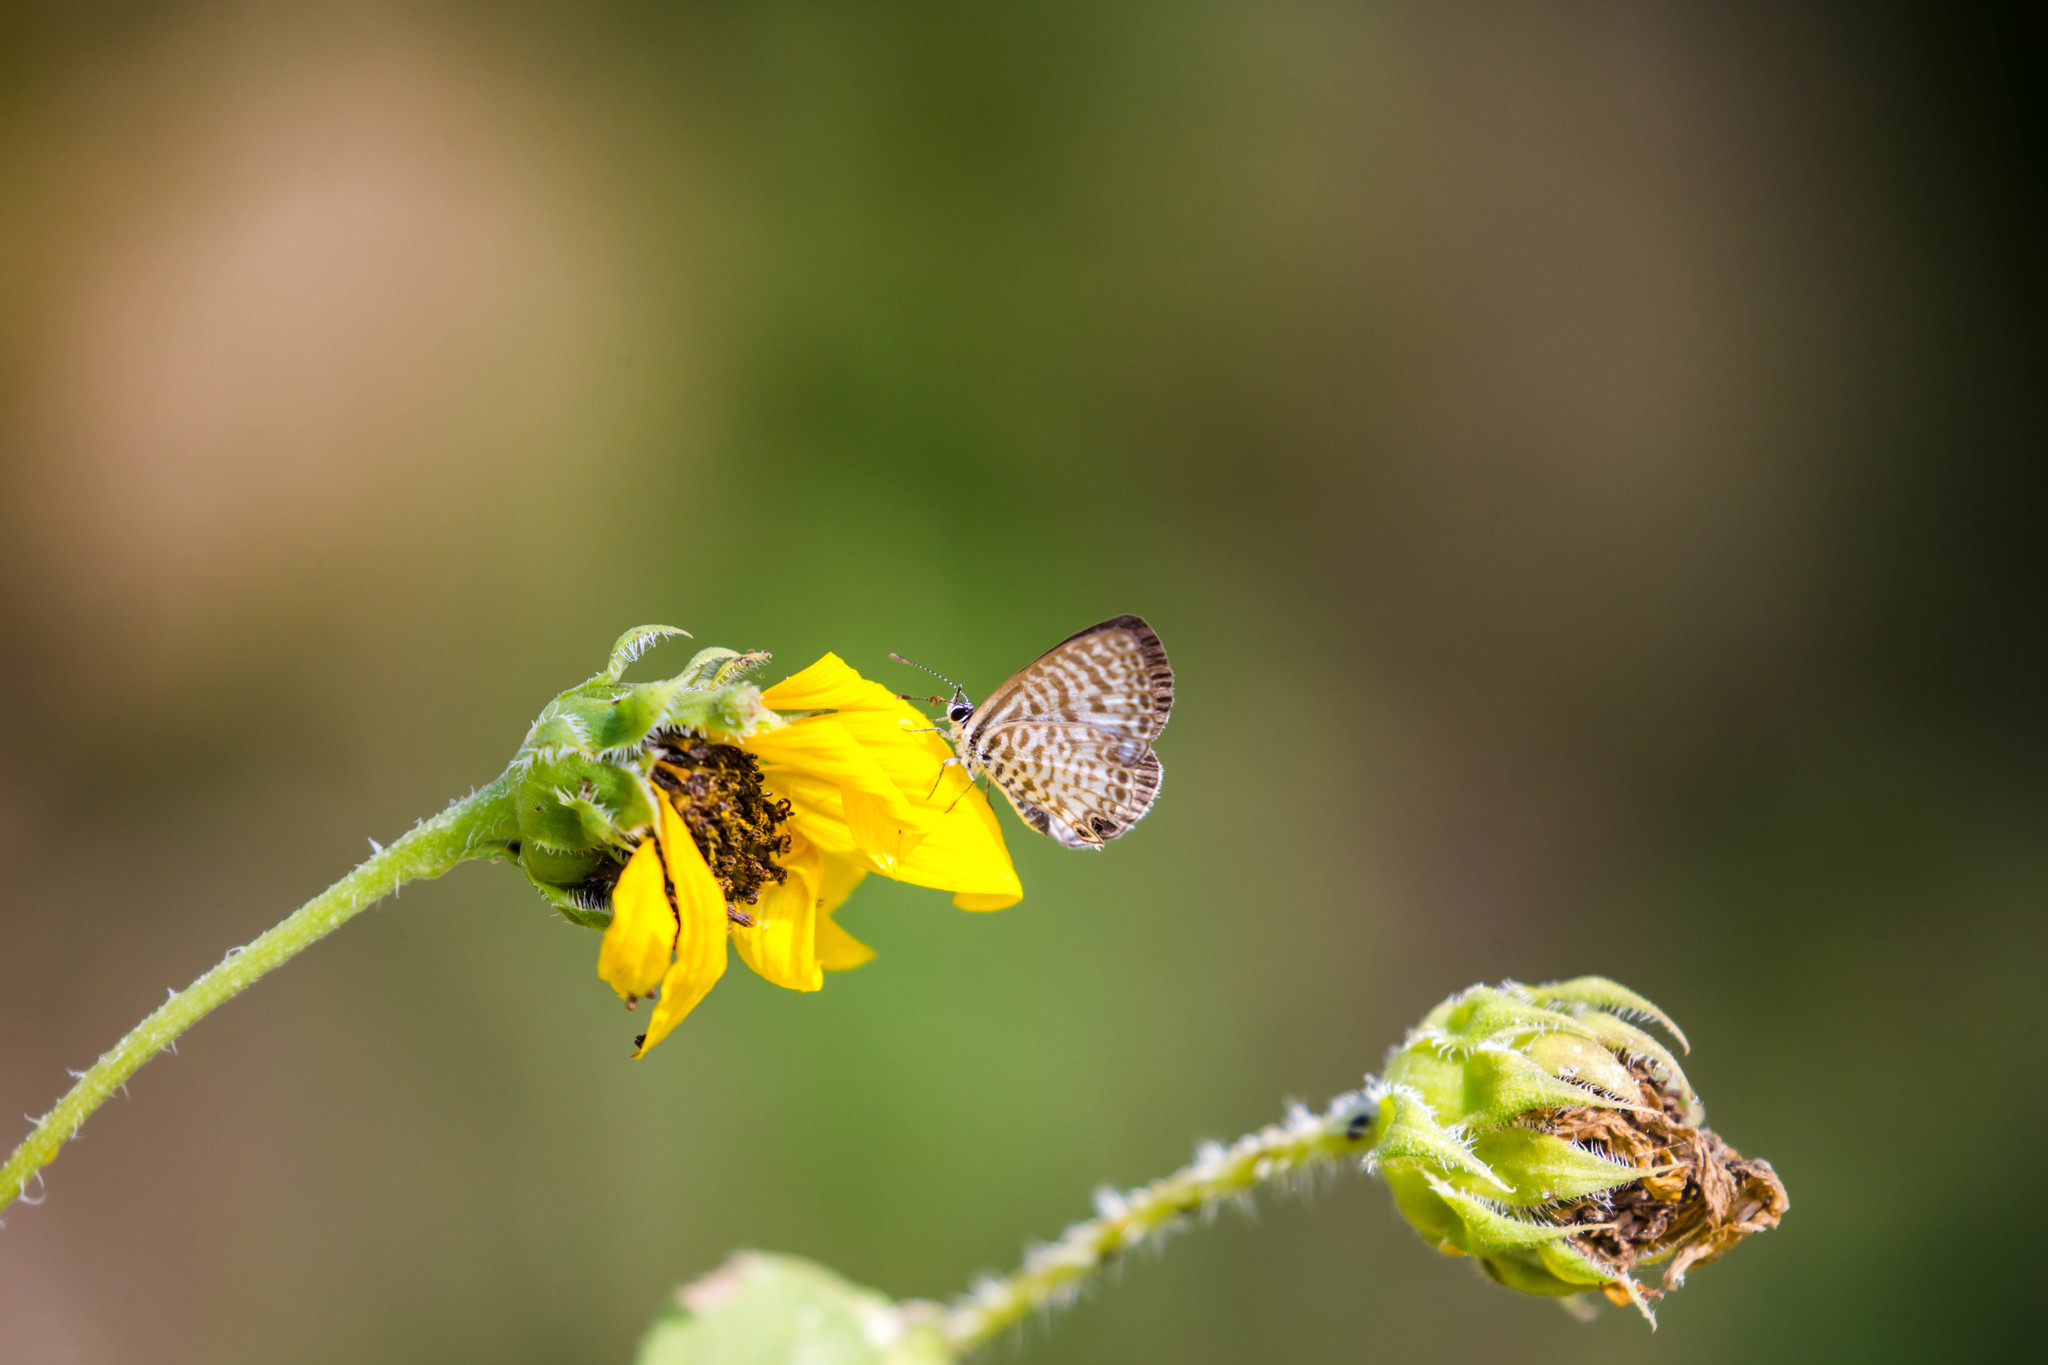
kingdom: Animalia
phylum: Arthropoda
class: Insecta
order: Lepidoptera
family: Lycaenidae
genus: Leptotes
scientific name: Leptotes cassius
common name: Cassius blue
